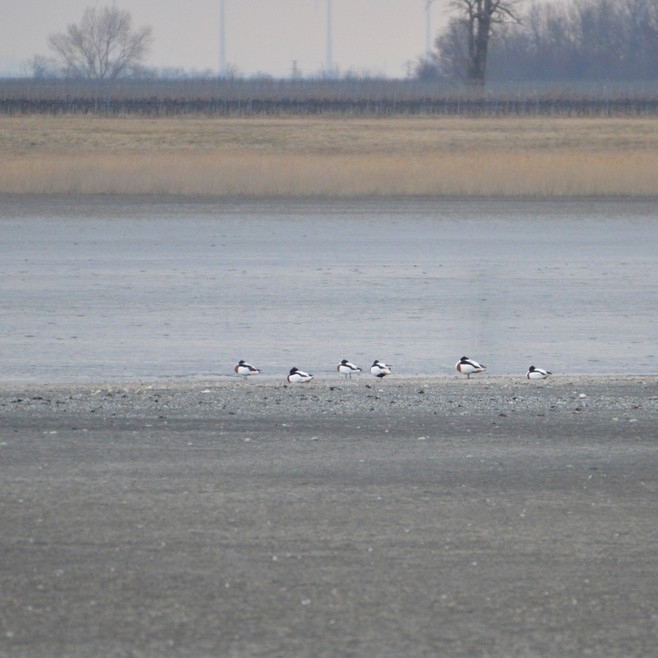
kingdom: Animalia
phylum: Chordata
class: Aves
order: Anseriformes
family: Anatidae
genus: Tadorna
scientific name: Tadorna tadorna
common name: Common shelduck
